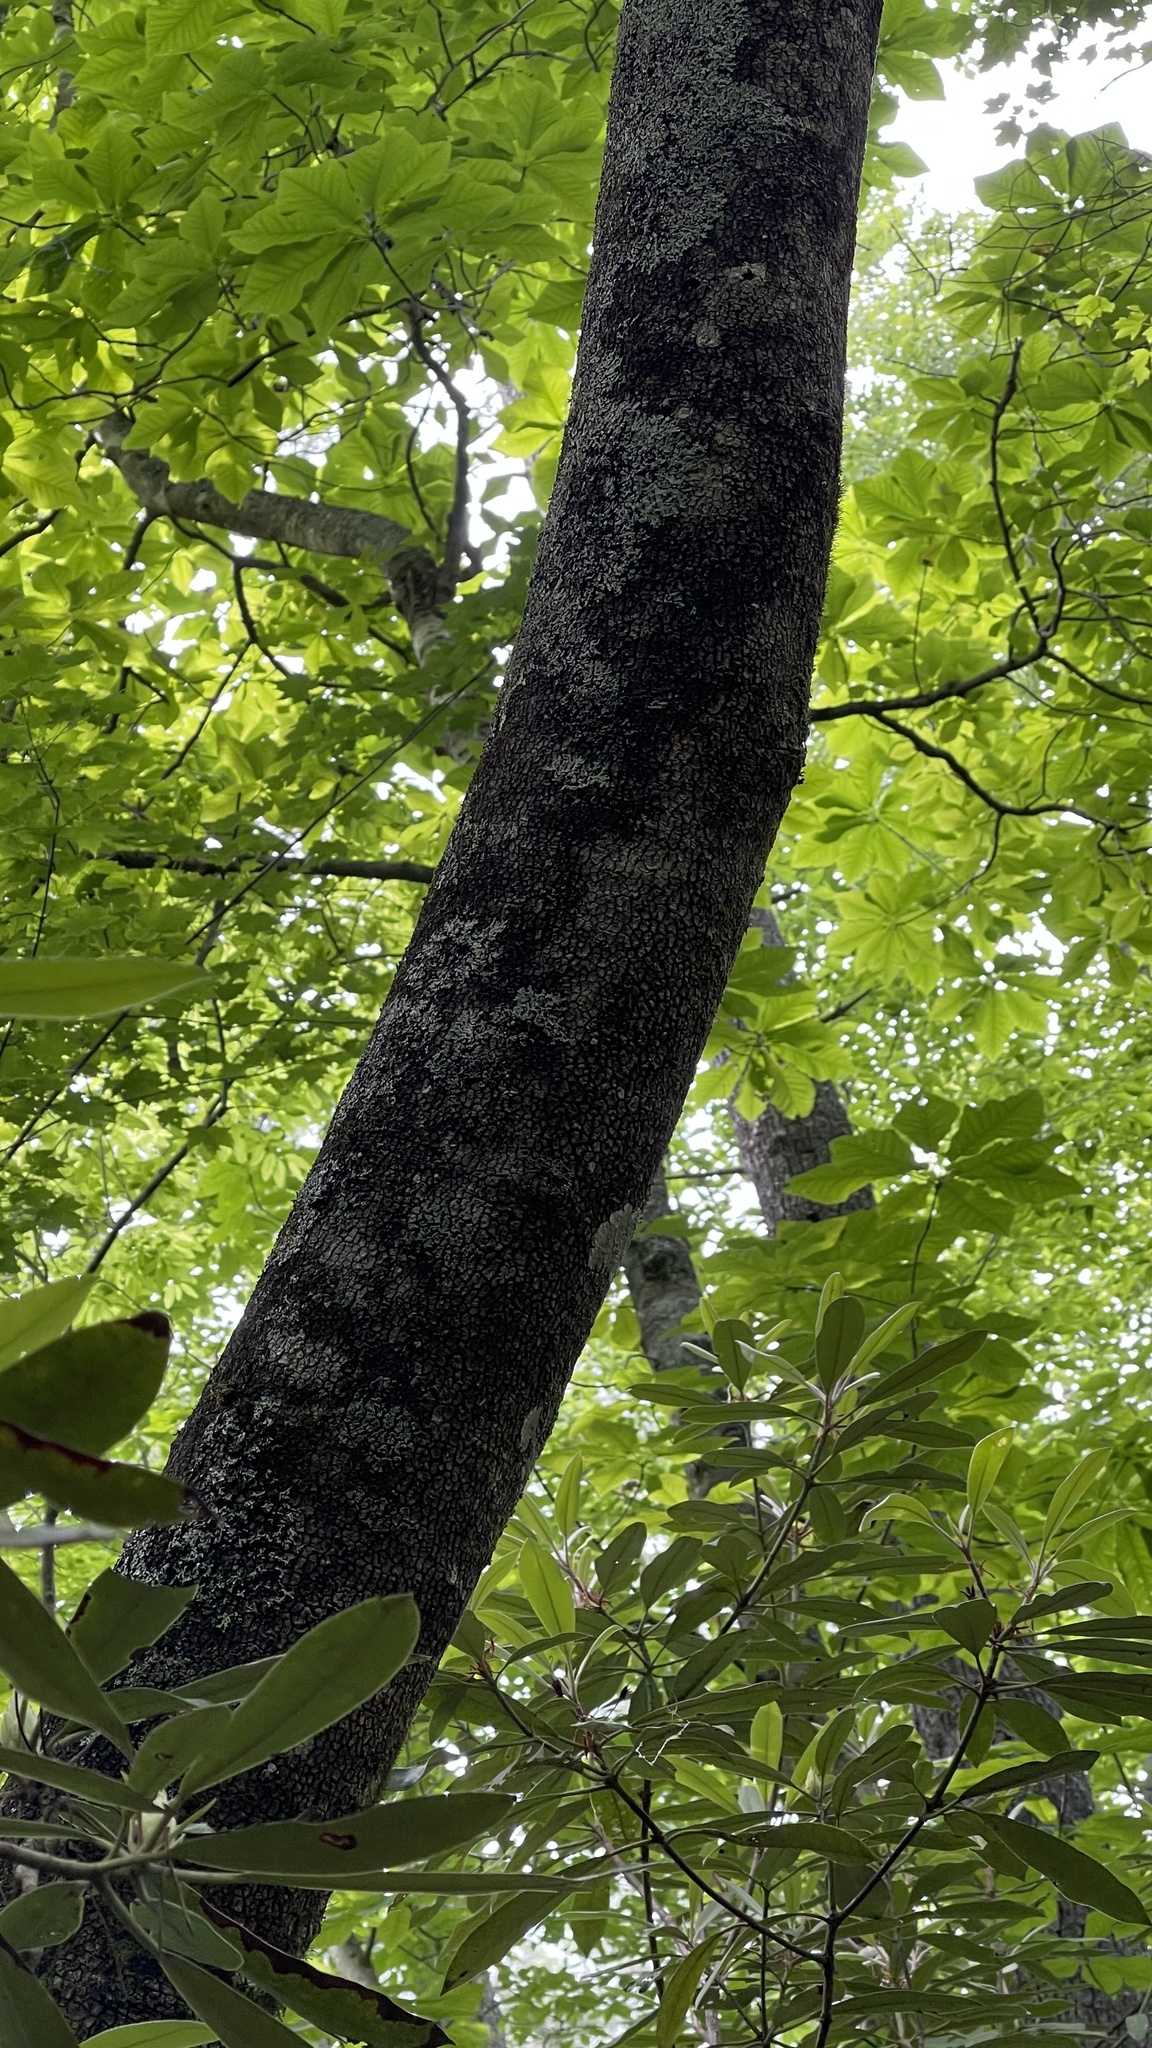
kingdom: Plantae
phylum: Tracheophyta
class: Magnoliopsida
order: Magnoliales
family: Magnoliaceae
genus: Magnolia
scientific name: Magnolia fraseri
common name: Fraser's magnolia
